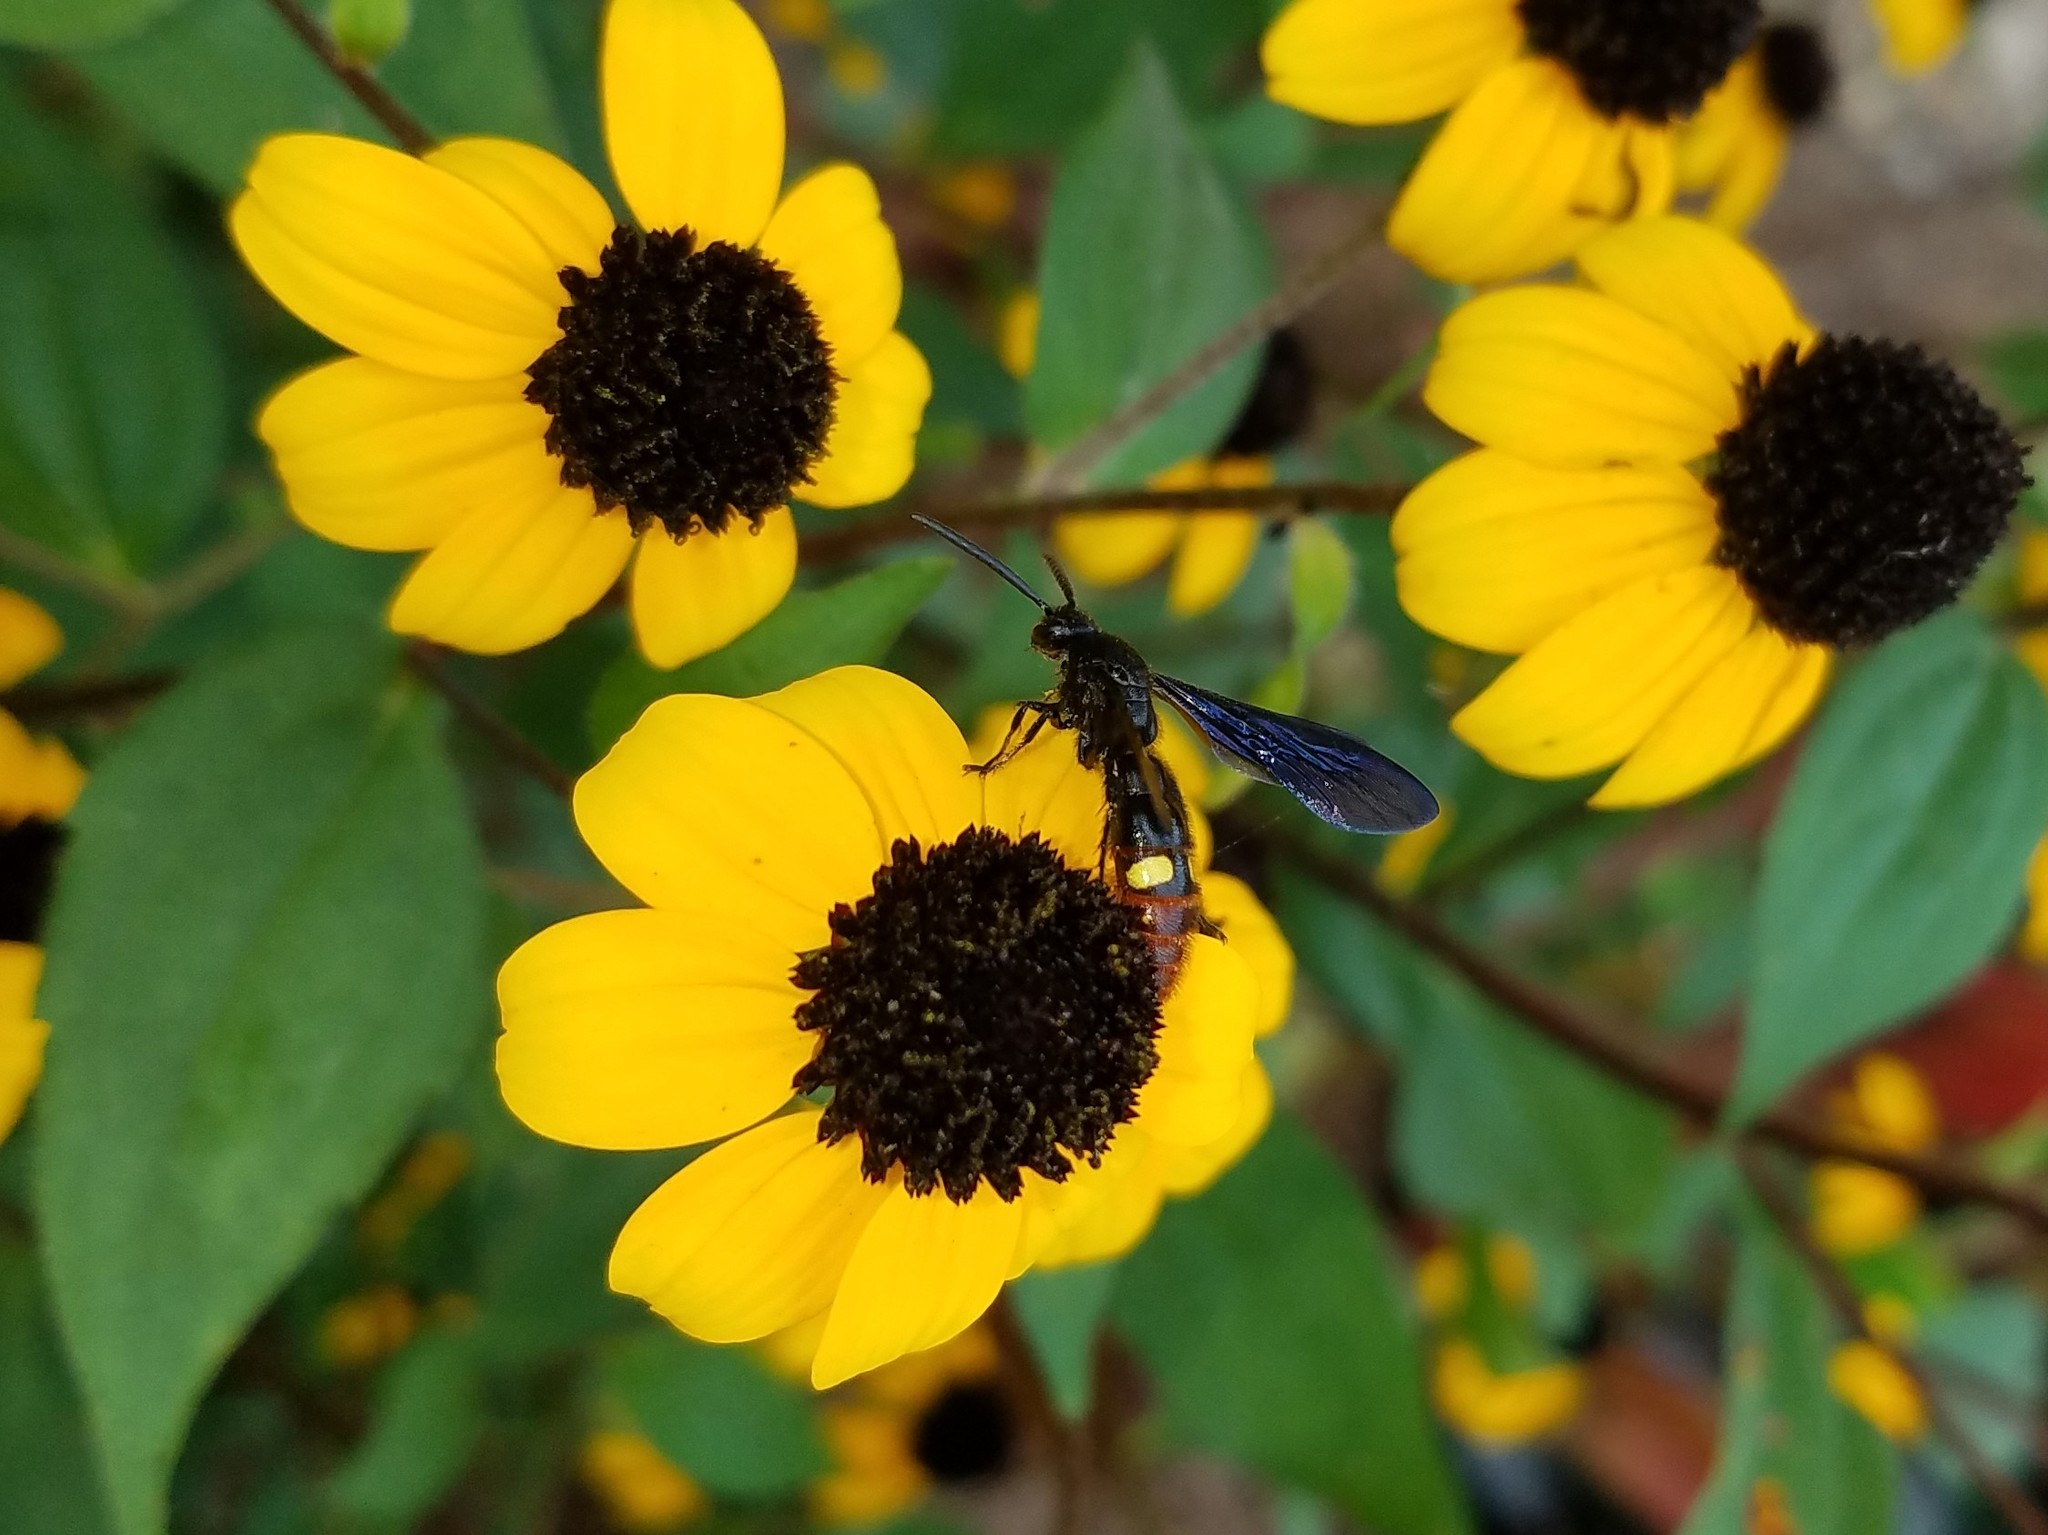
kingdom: Animalia
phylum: Arthropoda
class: Insecta
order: Hymenoptera
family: Scoliidae
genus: Scolia
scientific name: Scolia dubia
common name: Blue-winged scoliid wasp
